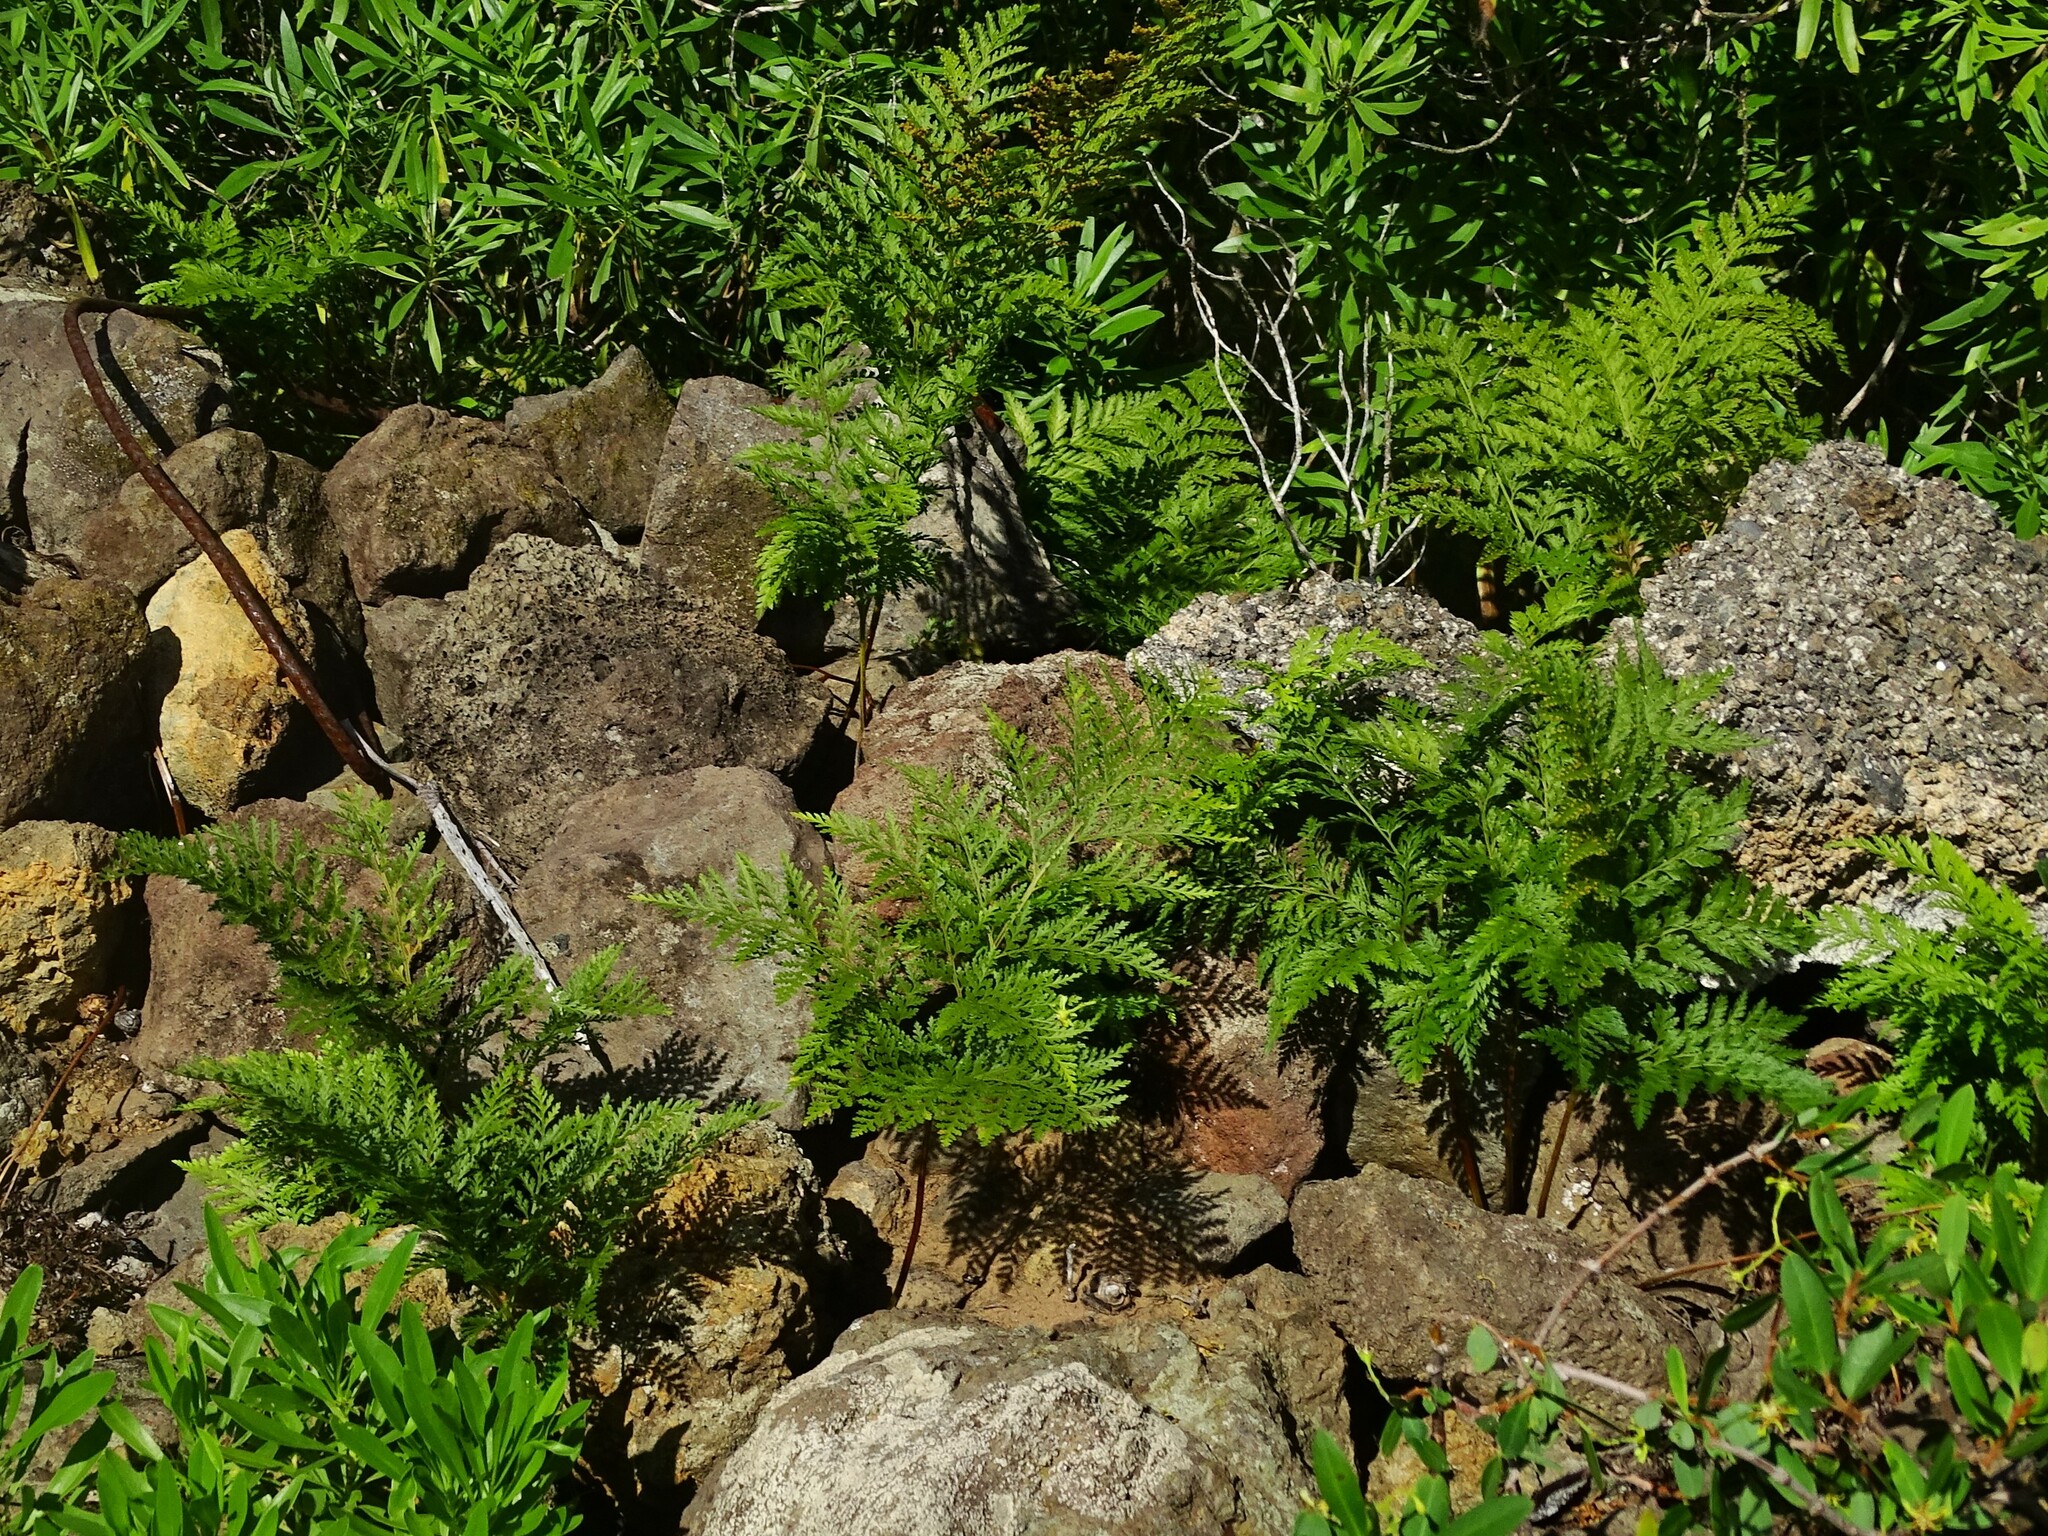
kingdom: Plantae
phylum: Tracheophyta
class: Polypodiopsida
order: Polypodiales
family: Davalliaceae
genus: Davallia
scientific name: Davallia canariensis
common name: Hare's-foot fern
